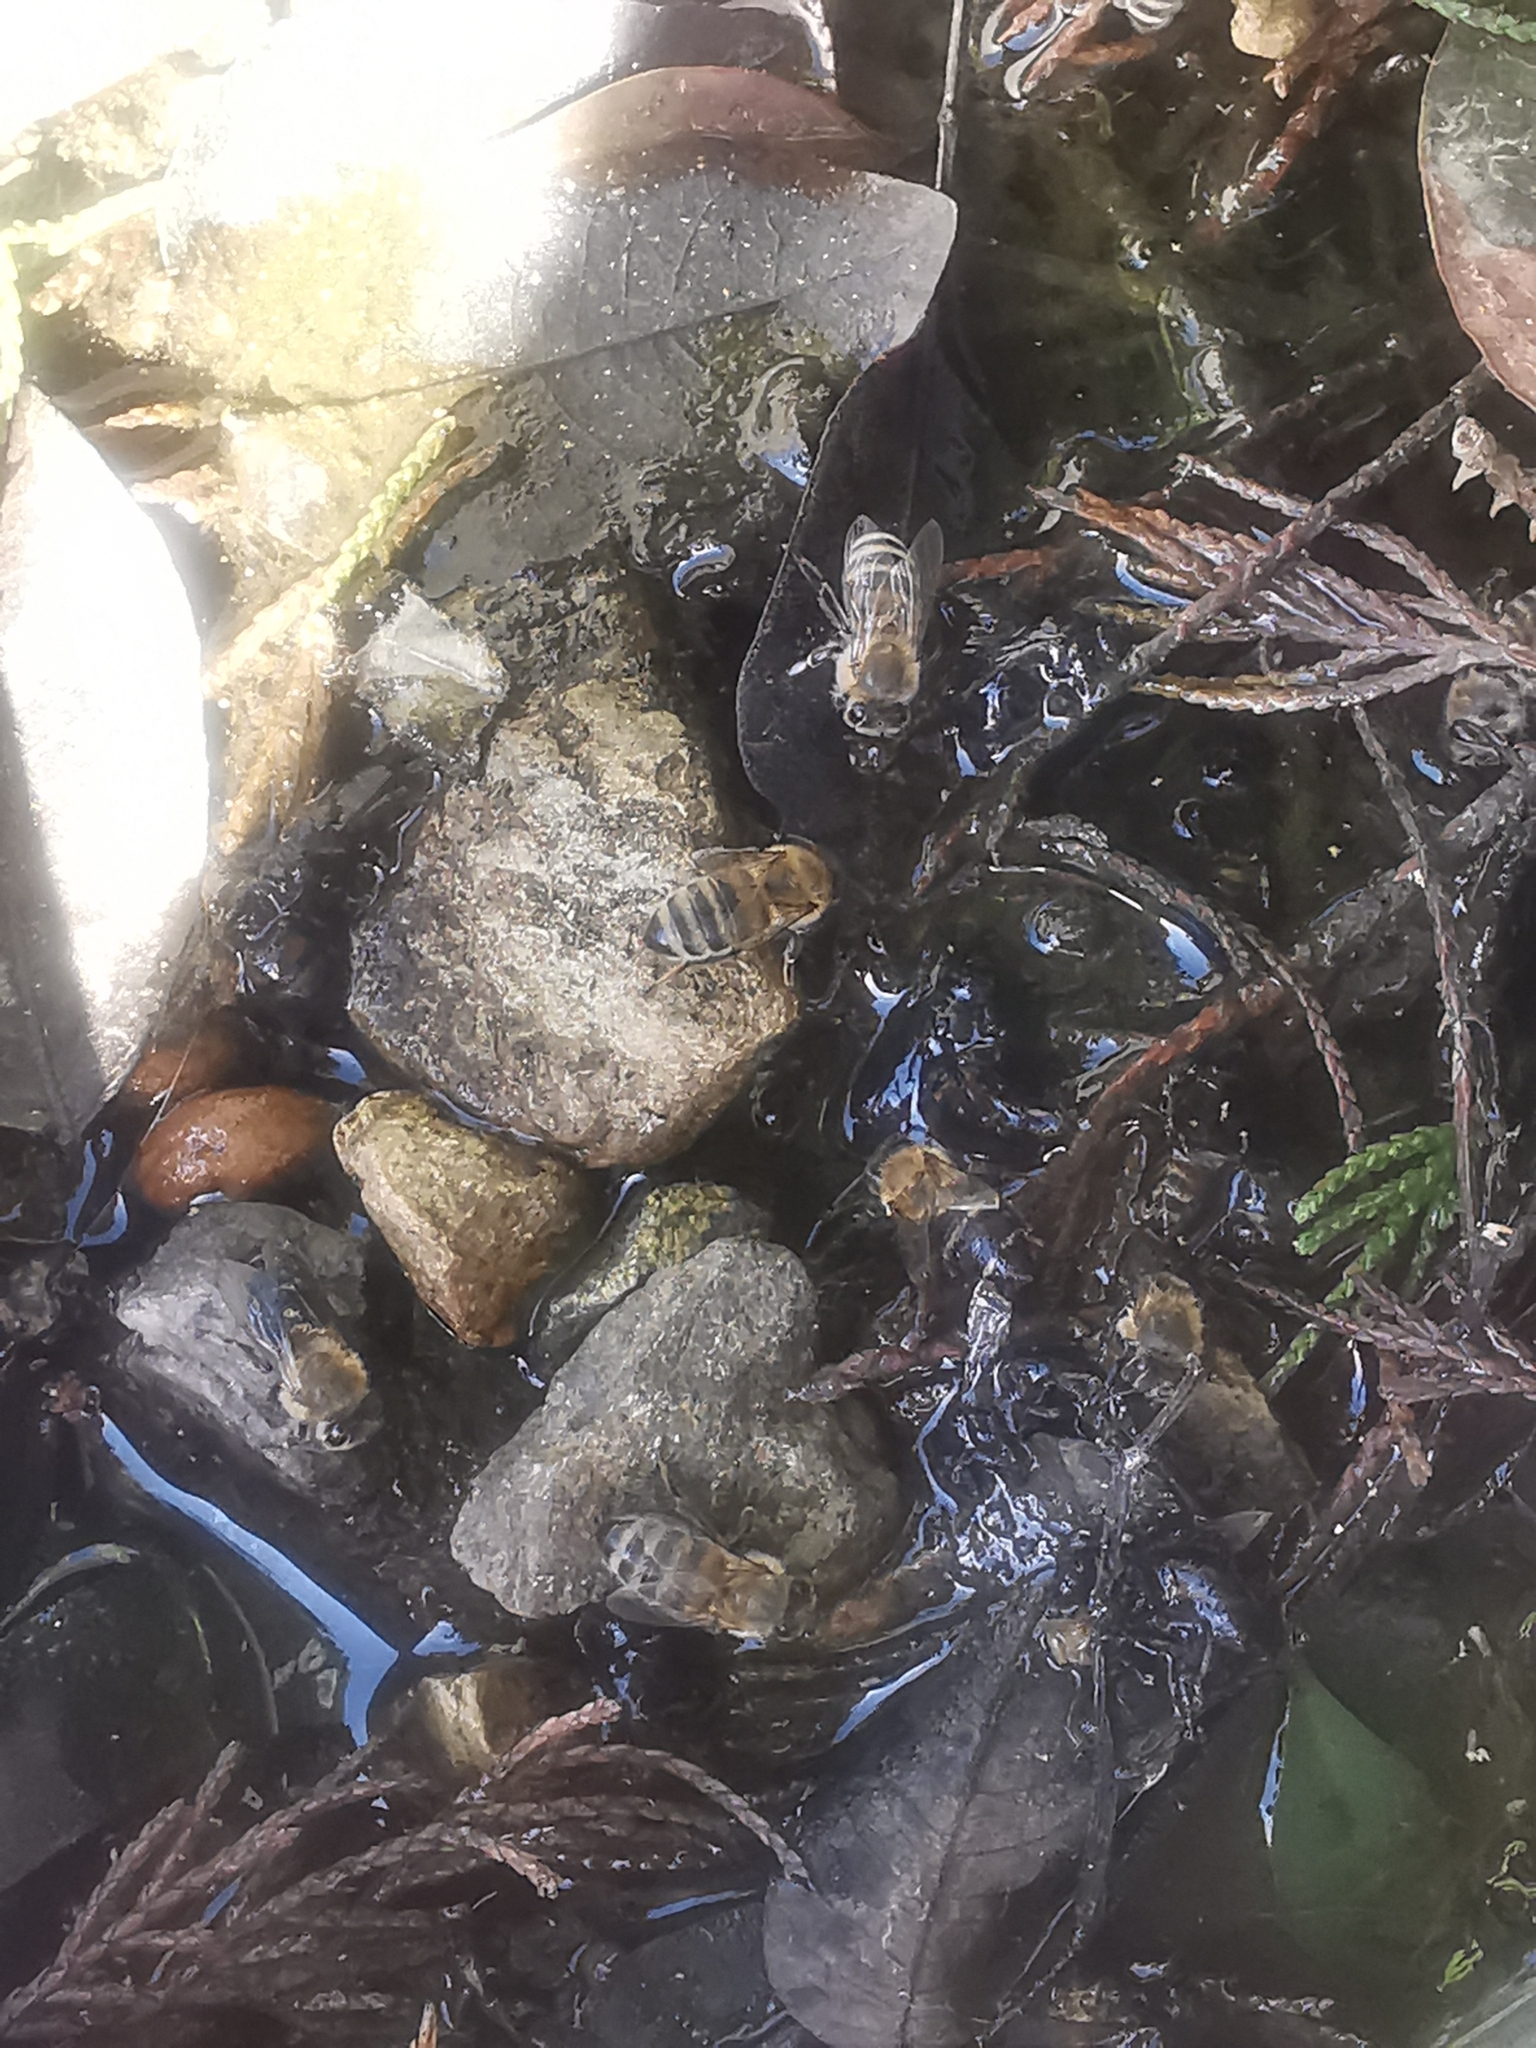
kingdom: Animalia
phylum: Arthropoda
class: Insecta
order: Hymenoptera
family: Apidae
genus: Apis
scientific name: Apis mellifera
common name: Honey bee
